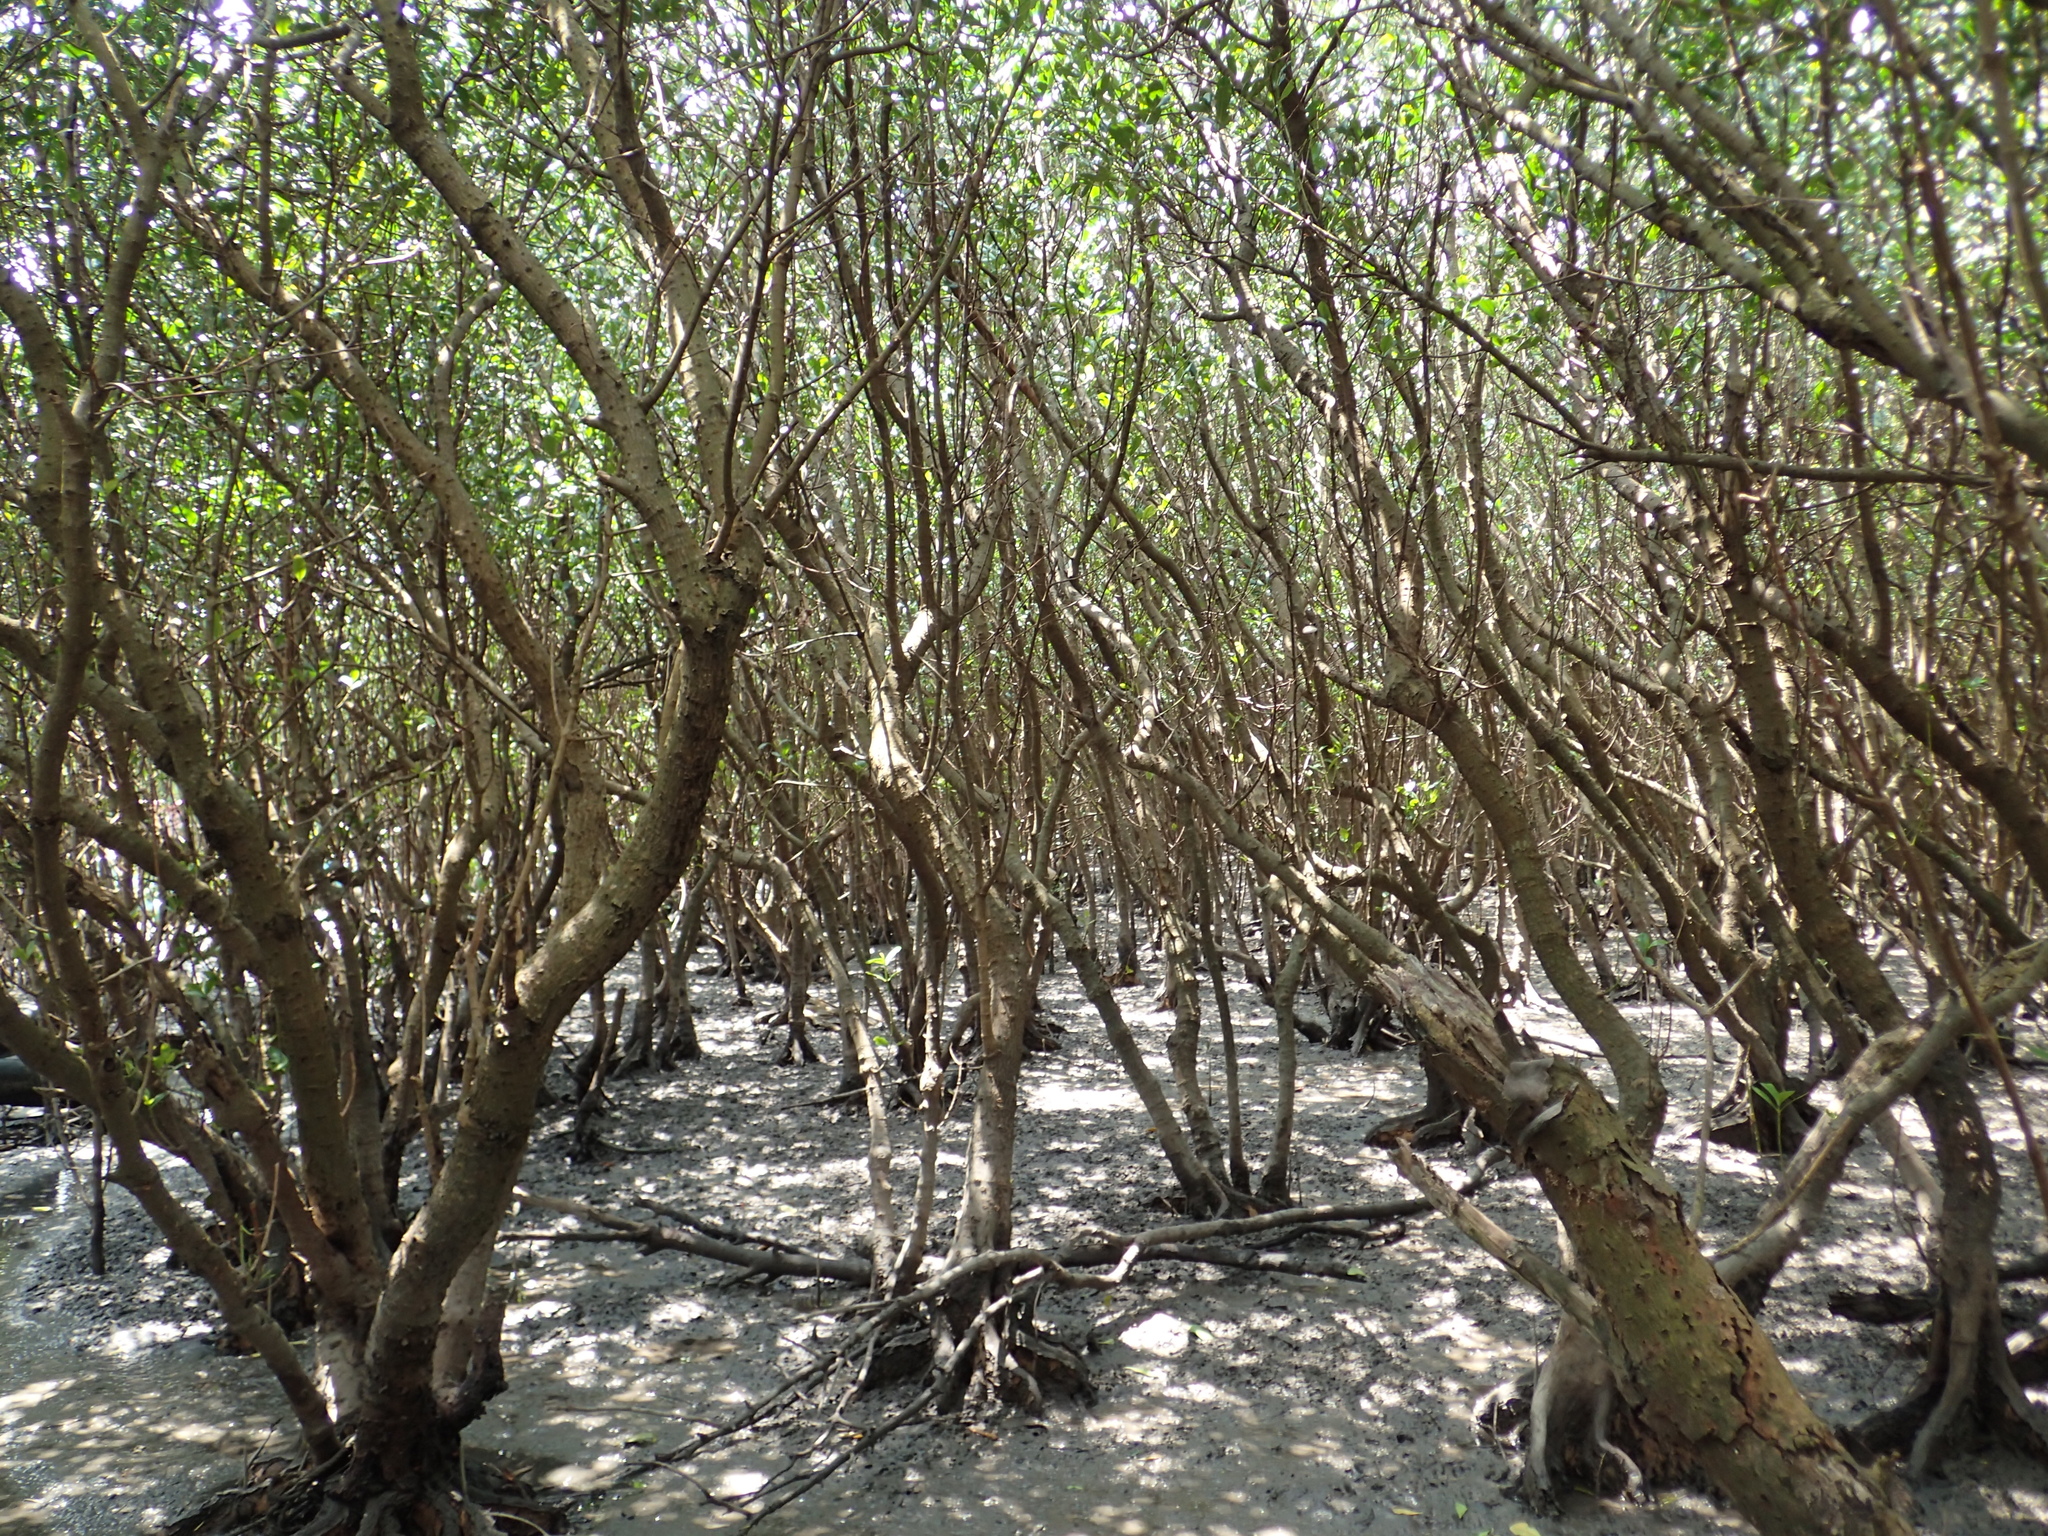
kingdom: Plantae
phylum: Tracheophyta
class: Magnoliopsida
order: Malpighiales
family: Rhizophoraceae
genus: Kandelia
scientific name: Kandelia obovata
